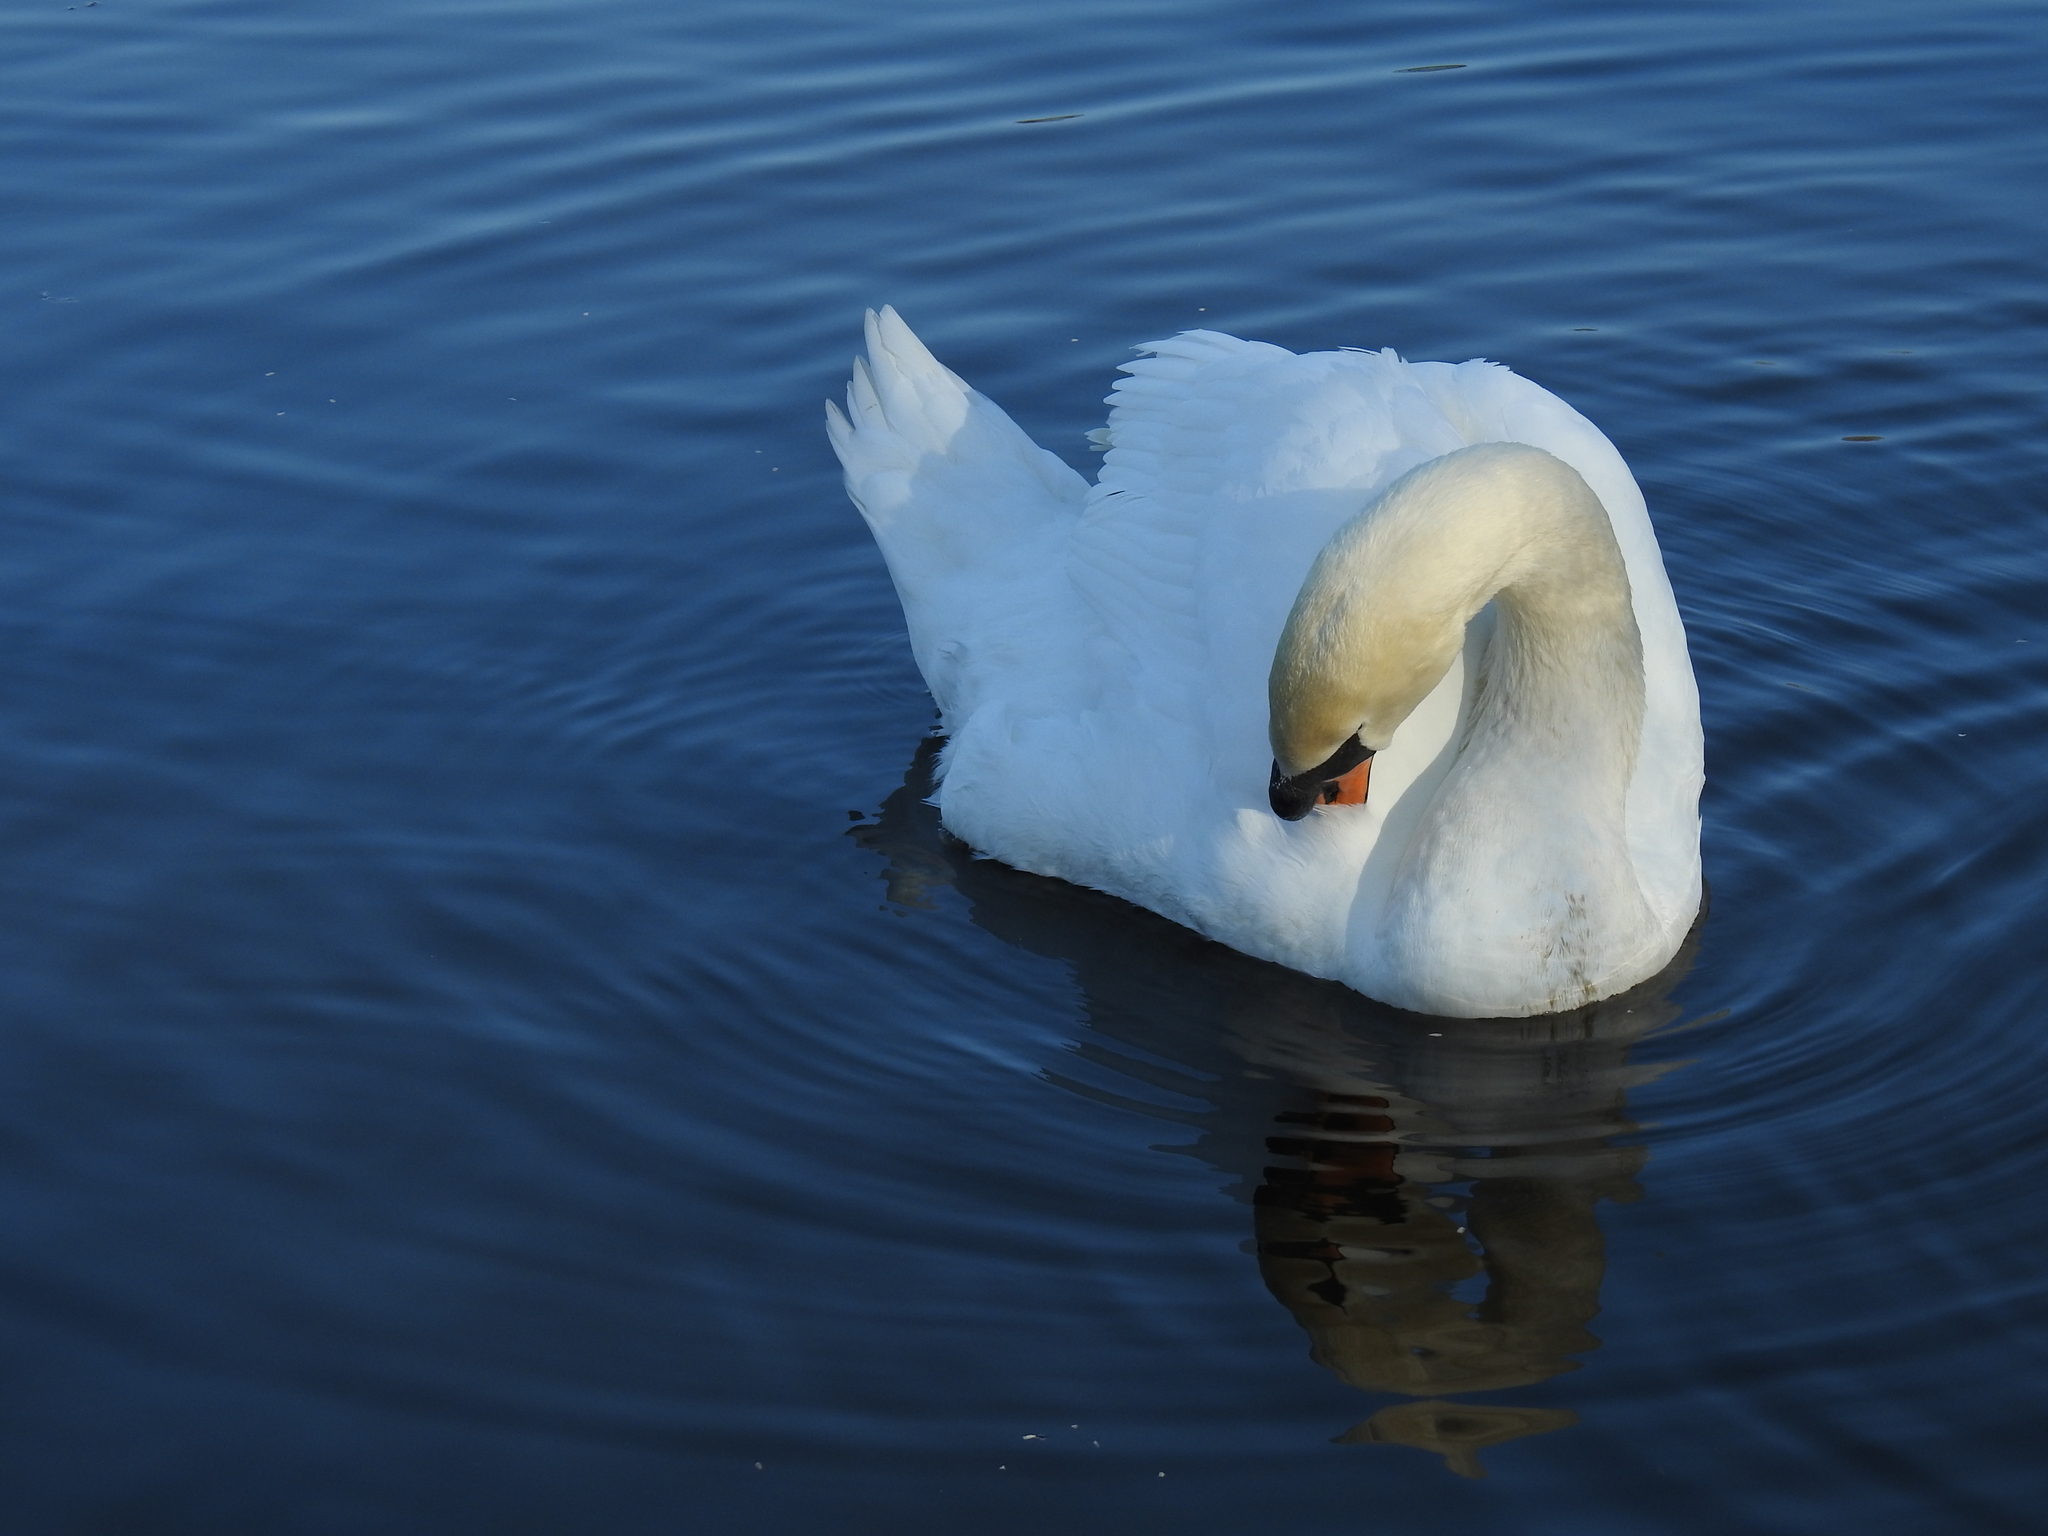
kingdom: Animalia
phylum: Chordata
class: Aves
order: Anseriformes
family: Anatidae
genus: Cygnus
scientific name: Cygnus olor
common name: Mute swan
